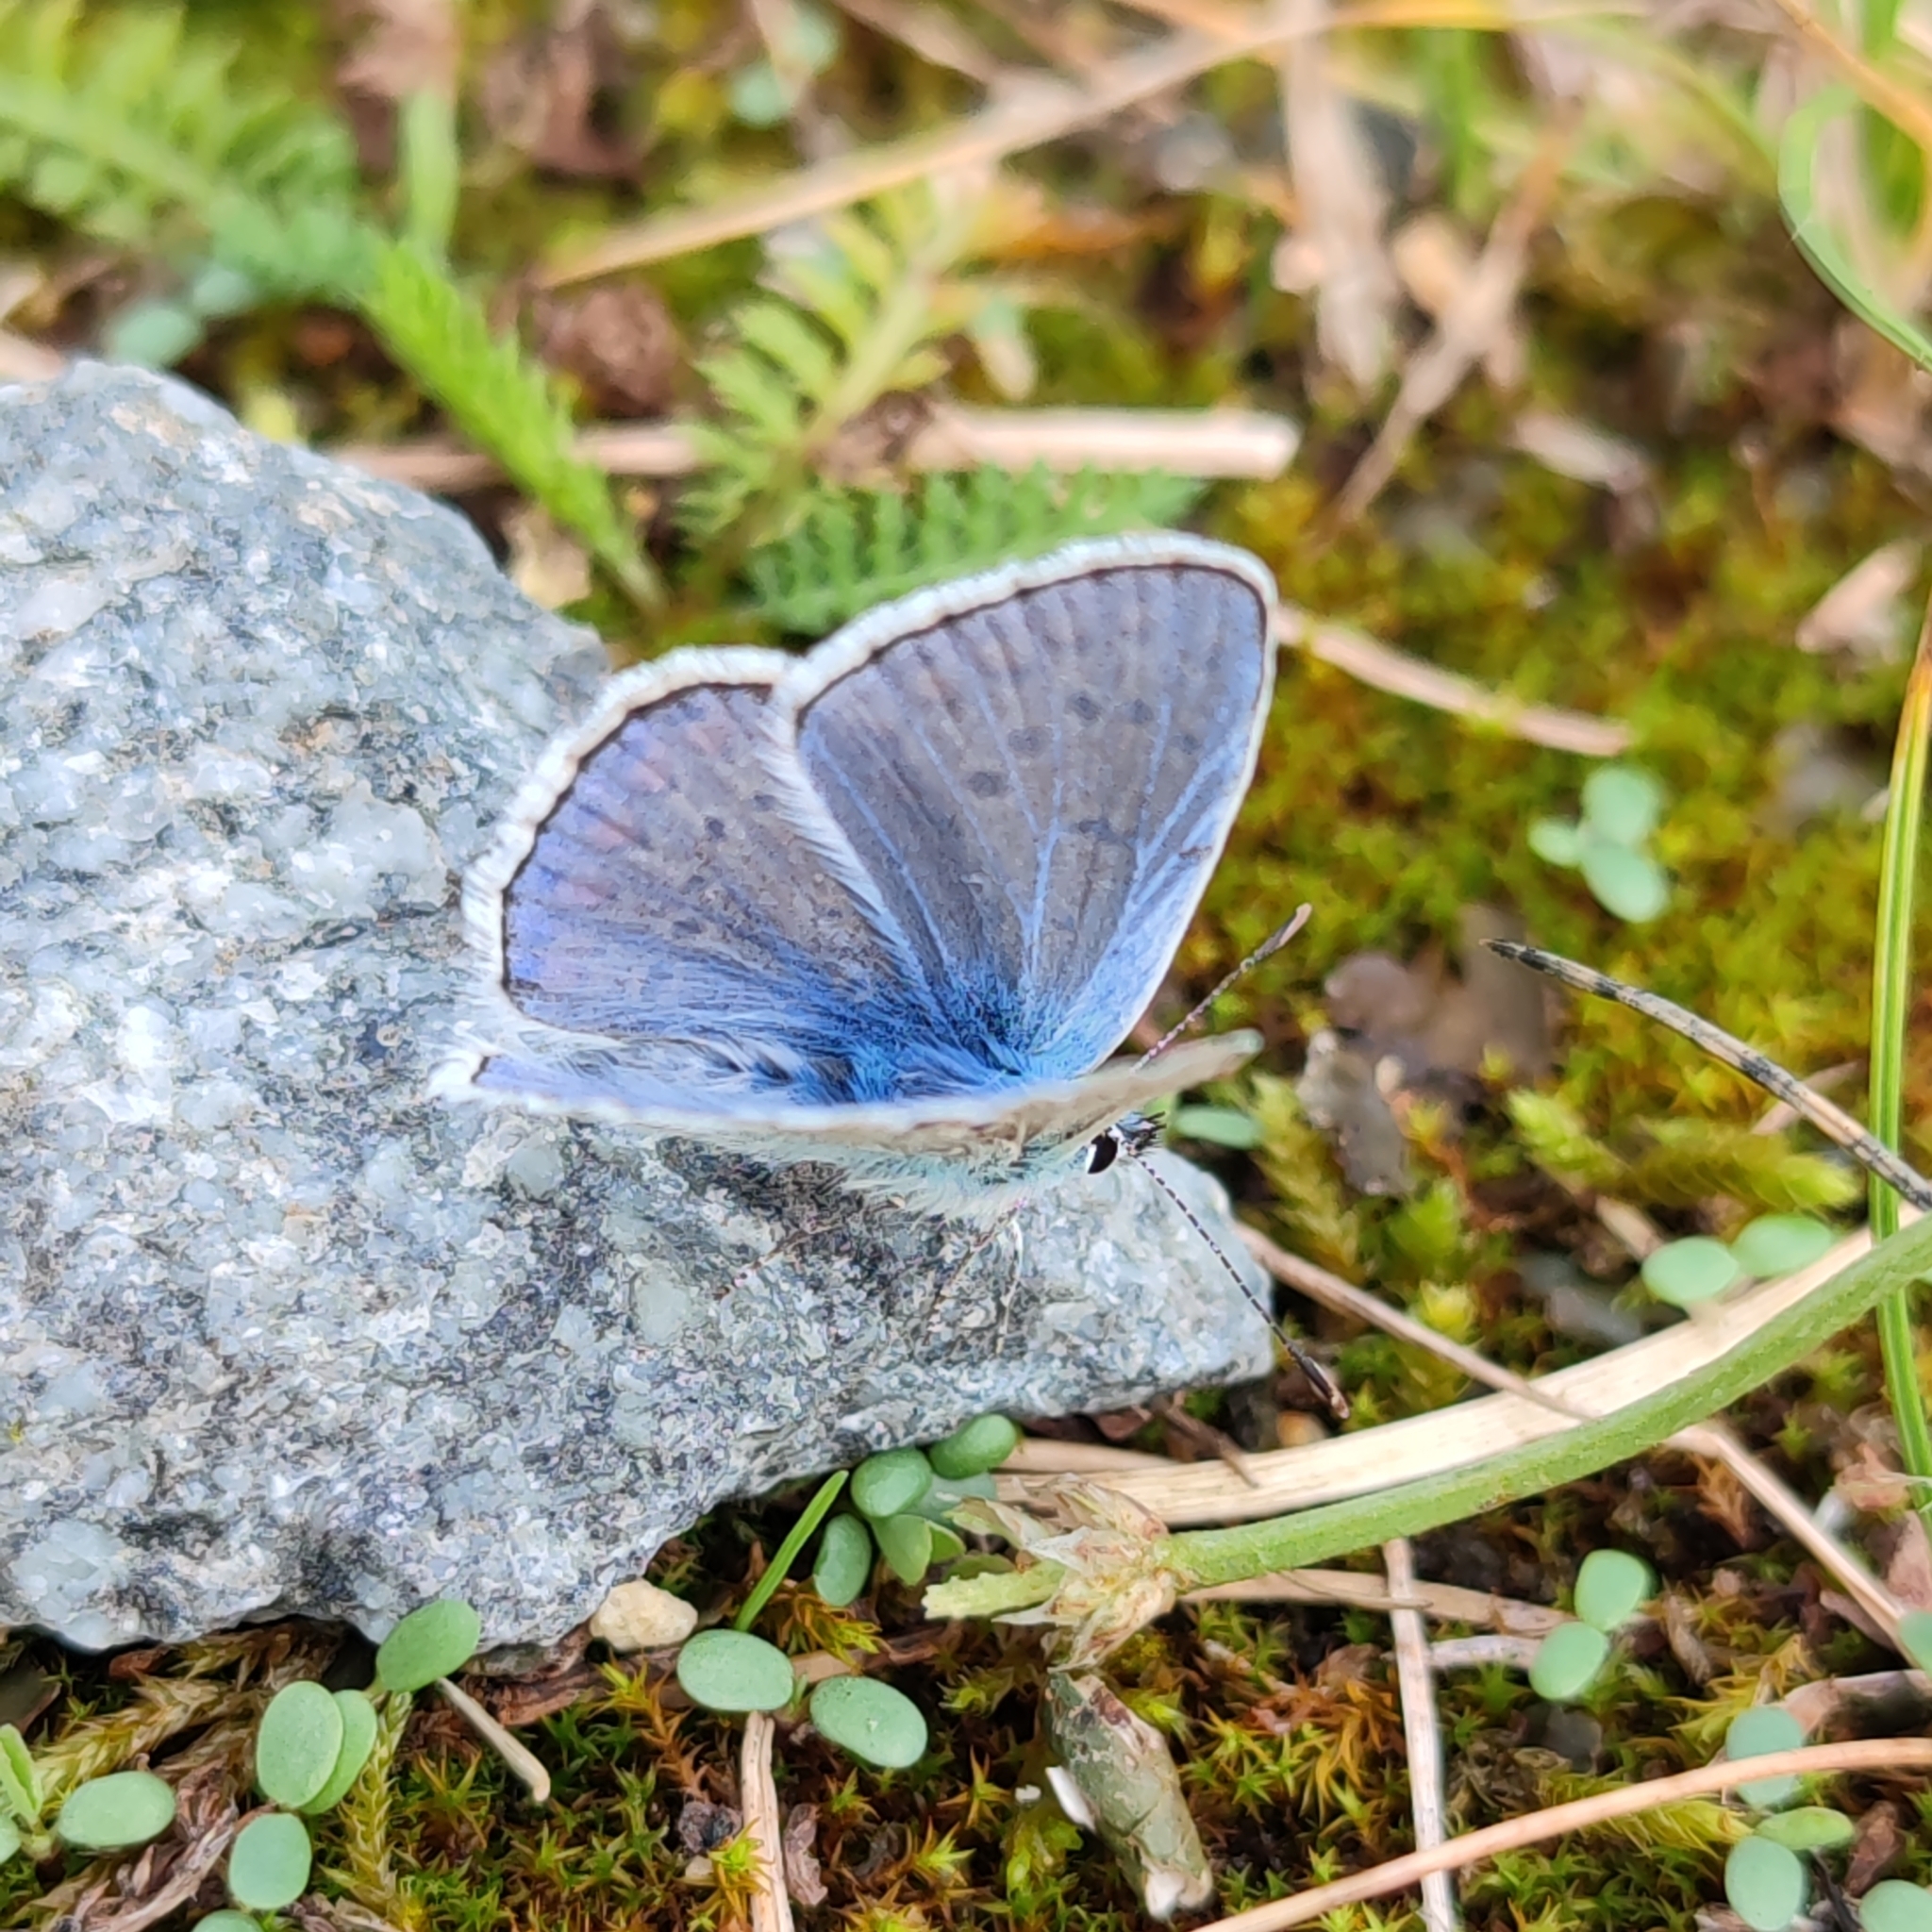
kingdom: Animalia
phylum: Arthropoda
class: Insecta
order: Lepidoptera
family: Lycaenidae
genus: Polyommatus
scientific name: Polyommatus icarus
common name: Common blue
